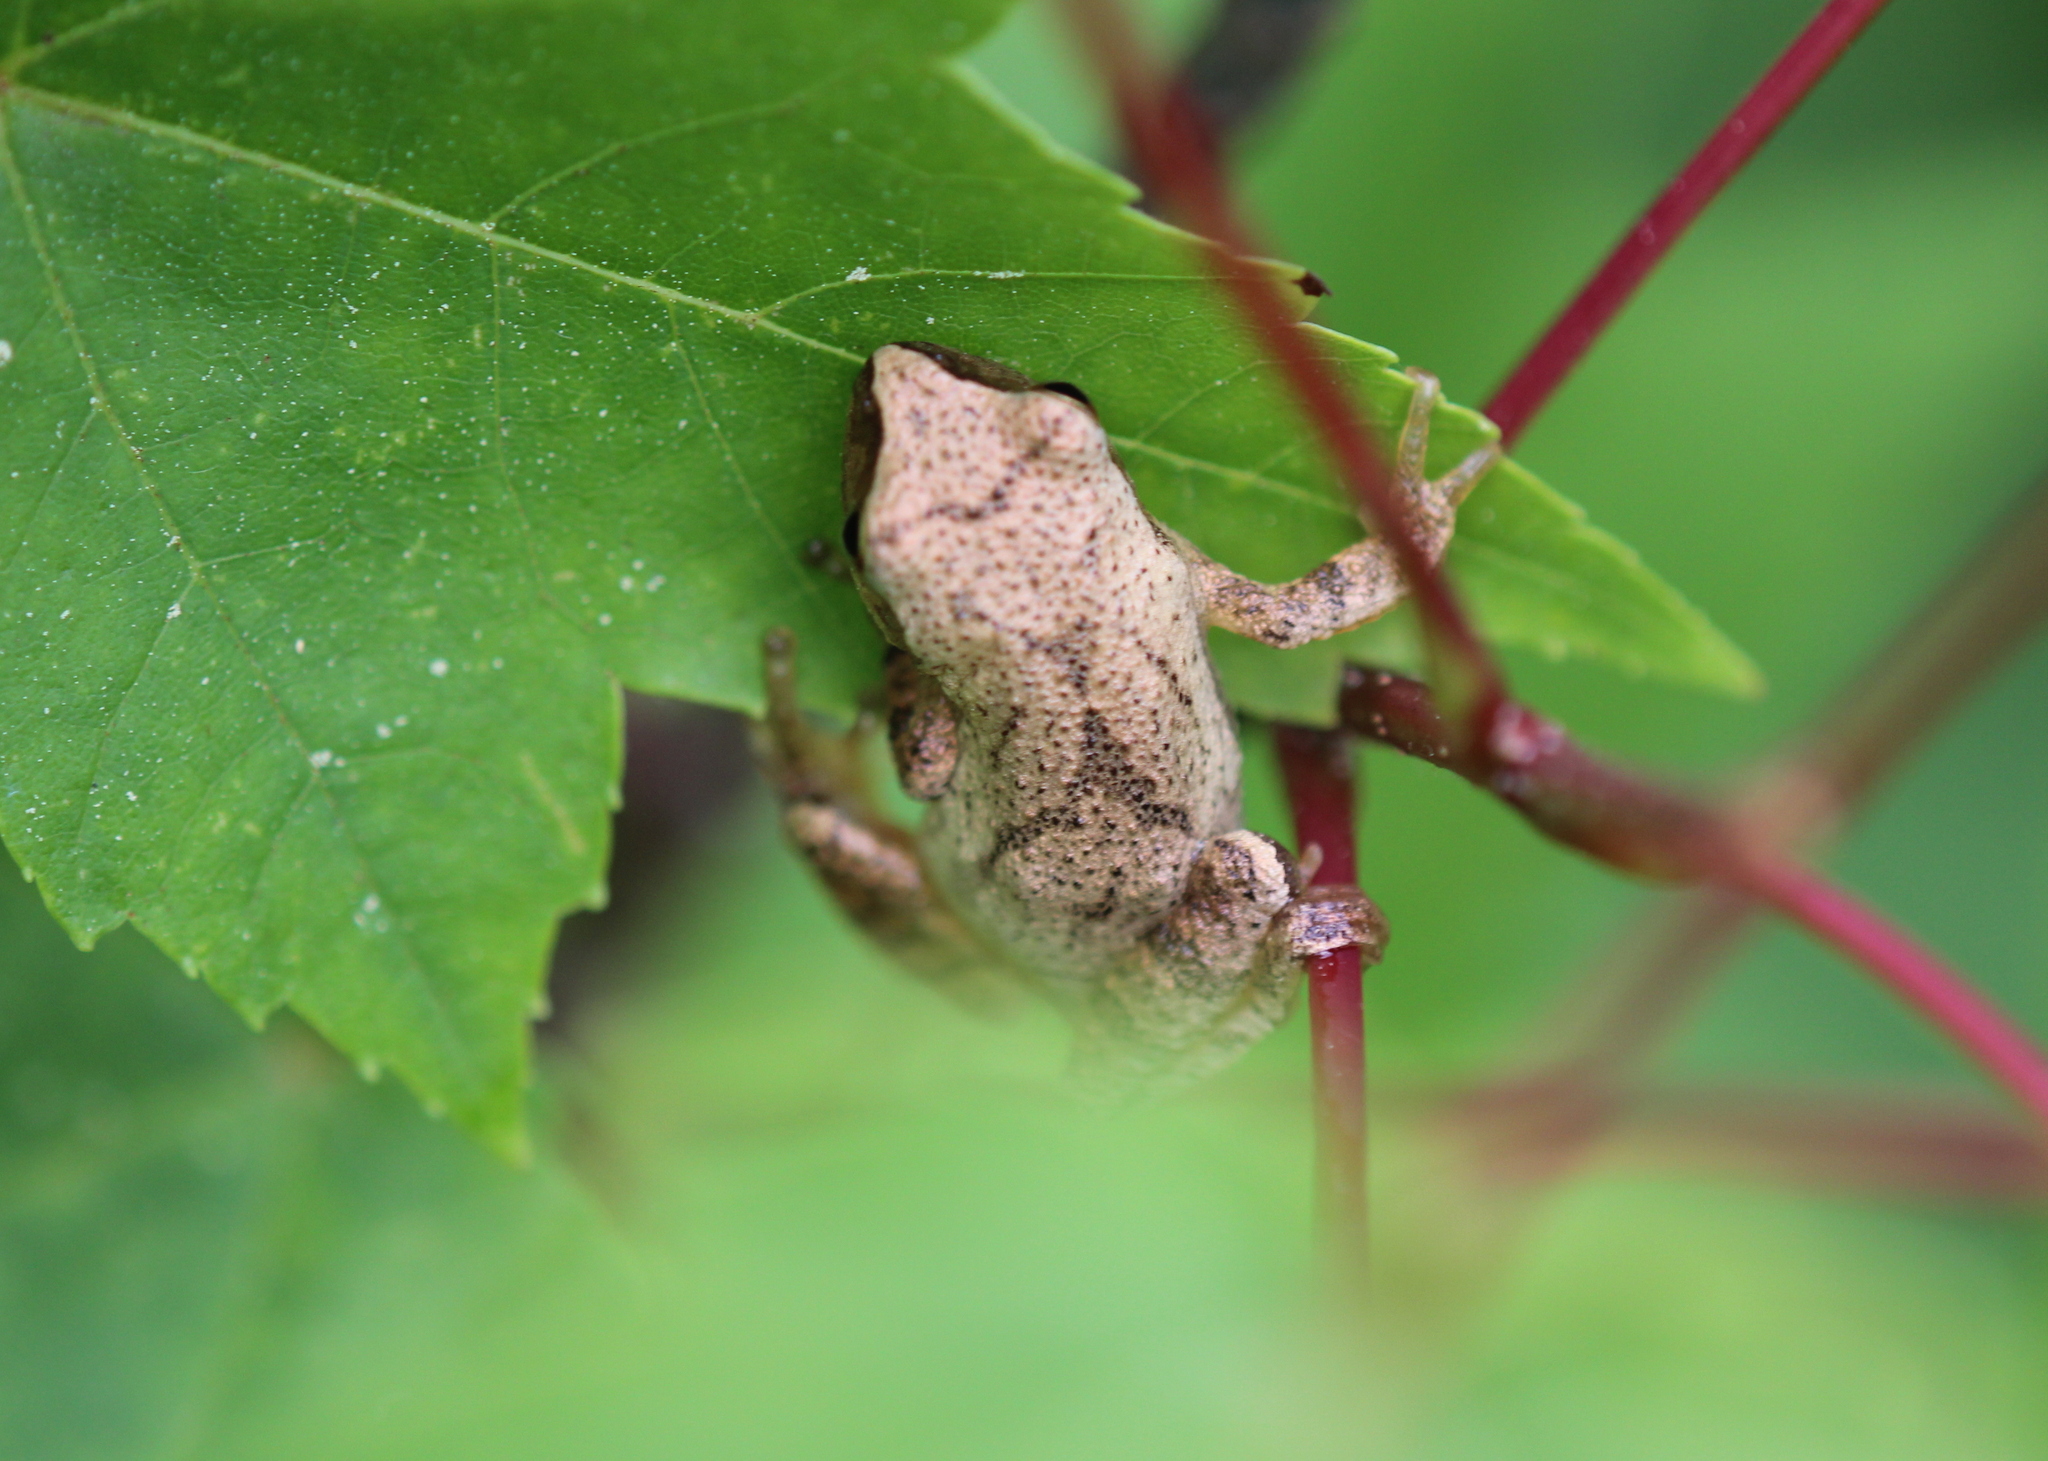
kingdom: Animalia
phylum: Chordata
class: Amphibia
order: Anura
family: Hylidae
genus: Pseudacris
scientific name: Pseudacris crucifer
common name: Spring peeper
